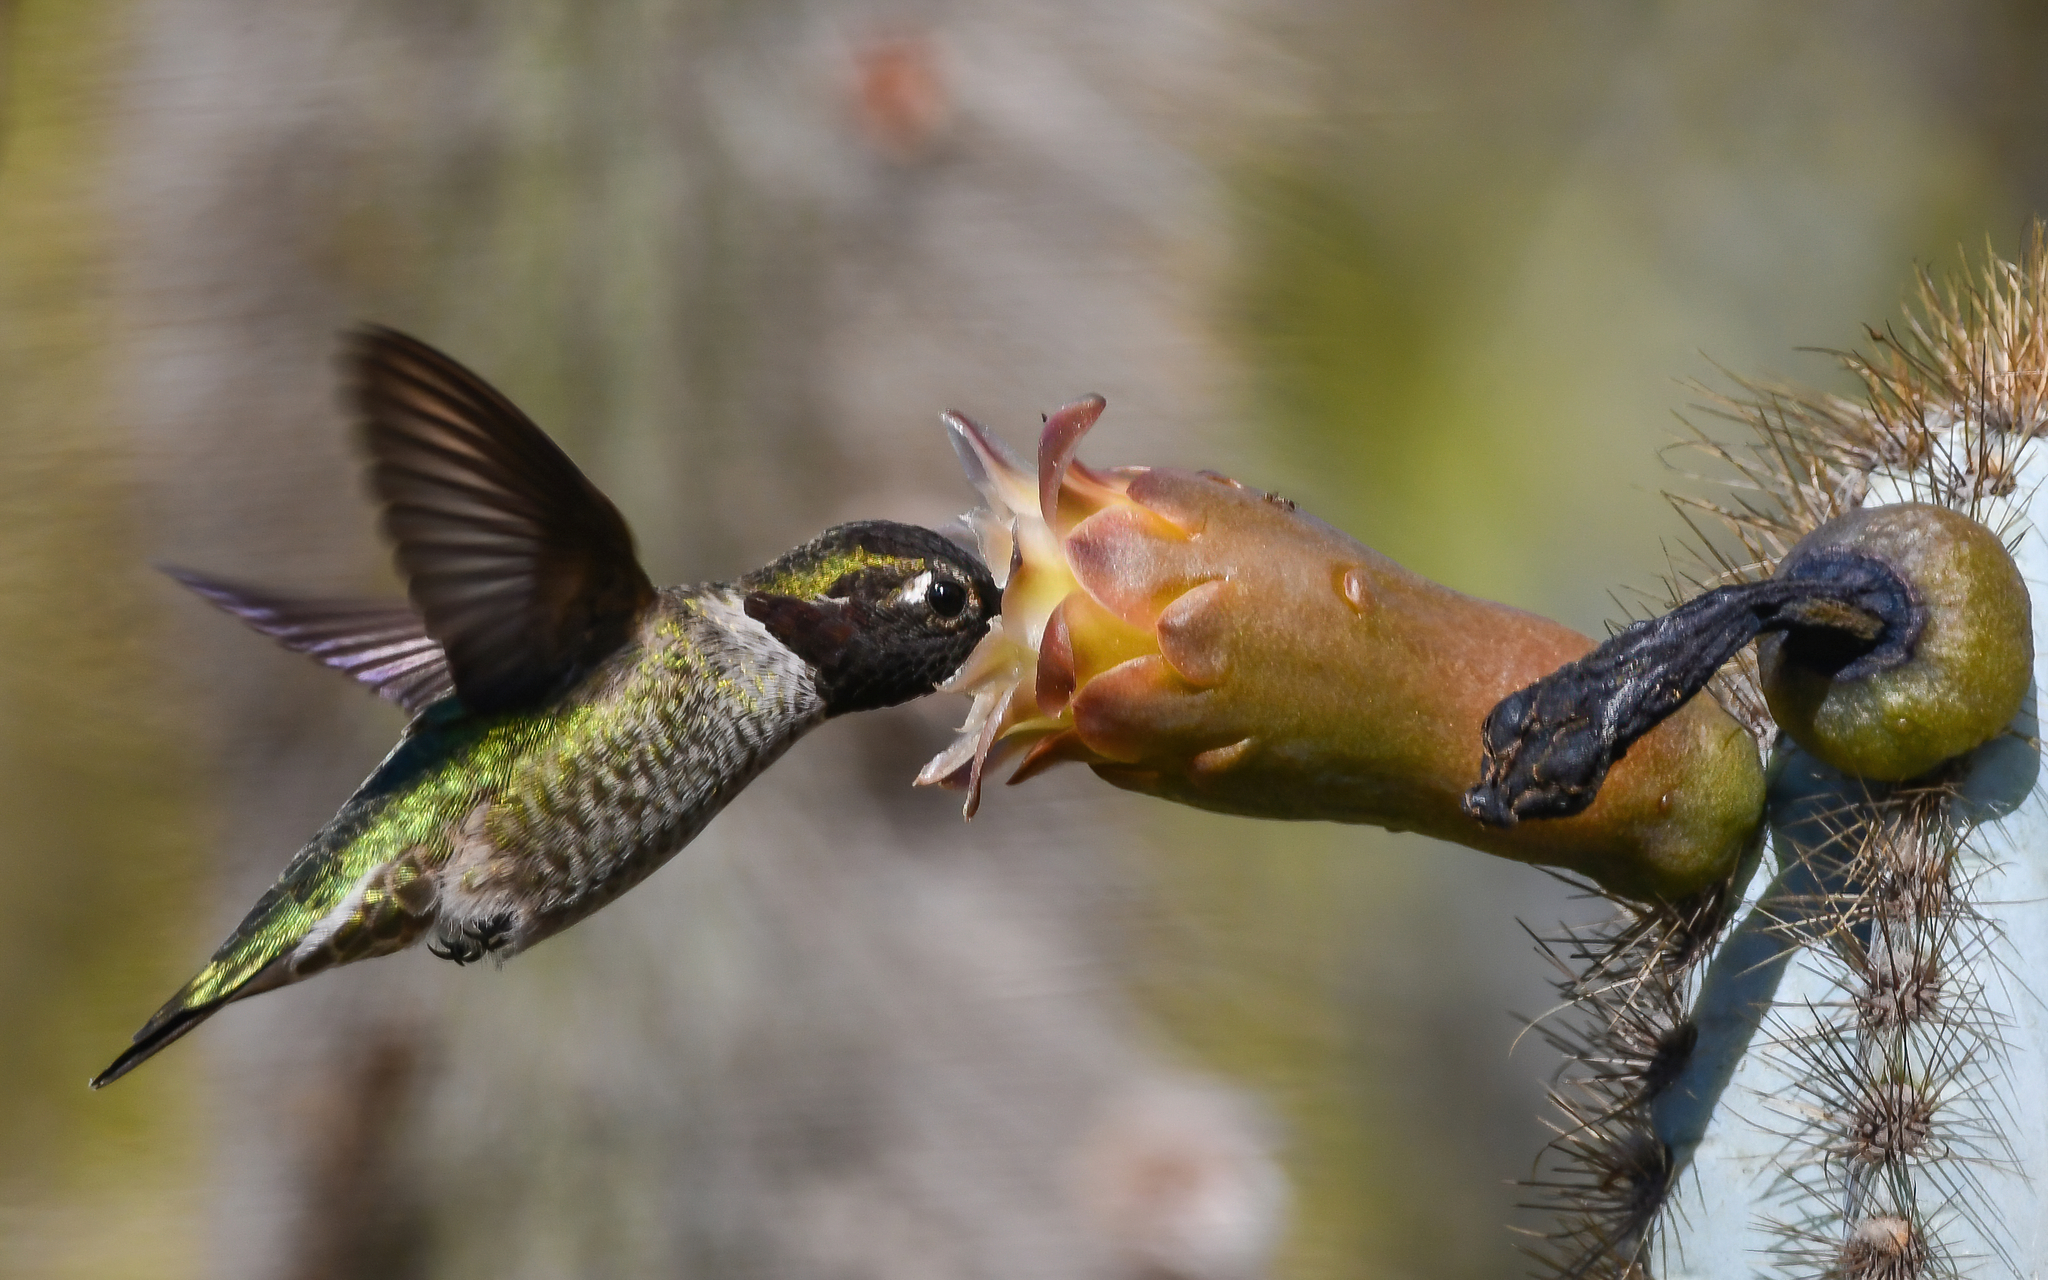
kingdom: Animalia
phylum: Chordata
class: Aves
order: Apodiformes
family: Trochilidae
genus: Calypte
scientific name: Calypte anna
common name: Anna's hummingbird
